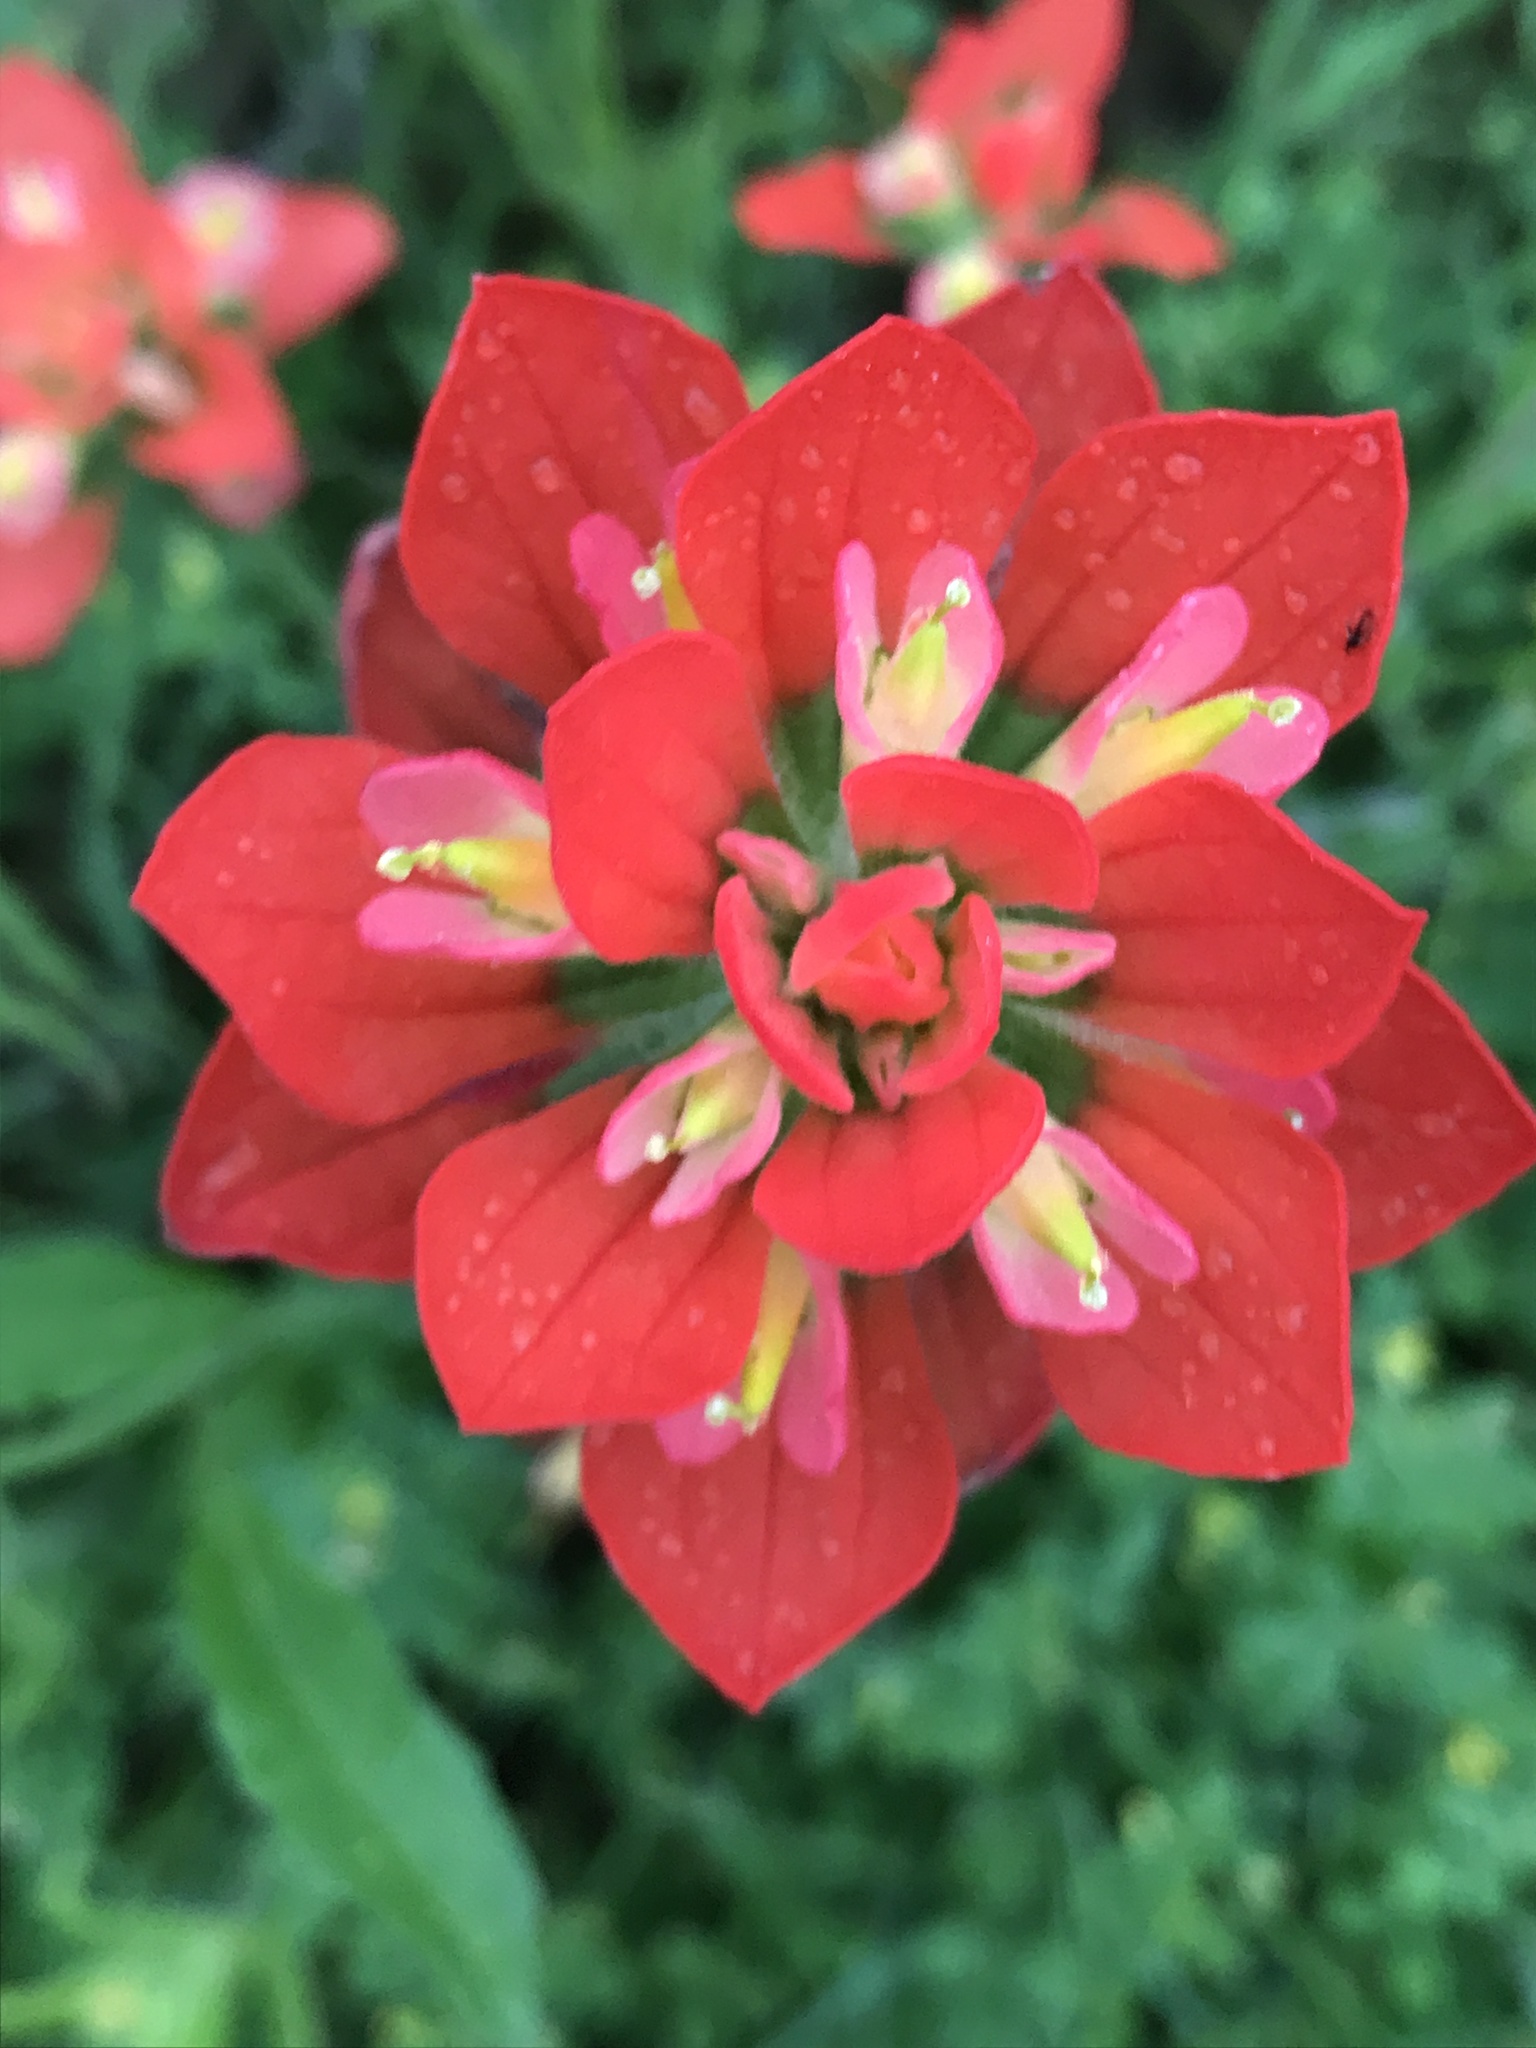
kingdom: Plantae
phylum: Tracheophyta
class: Magnoliopsida
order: Lamiales
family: Orobanchaceae
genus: Castilleja
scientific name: Castilleja indivisa
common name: Texas paintbrush
